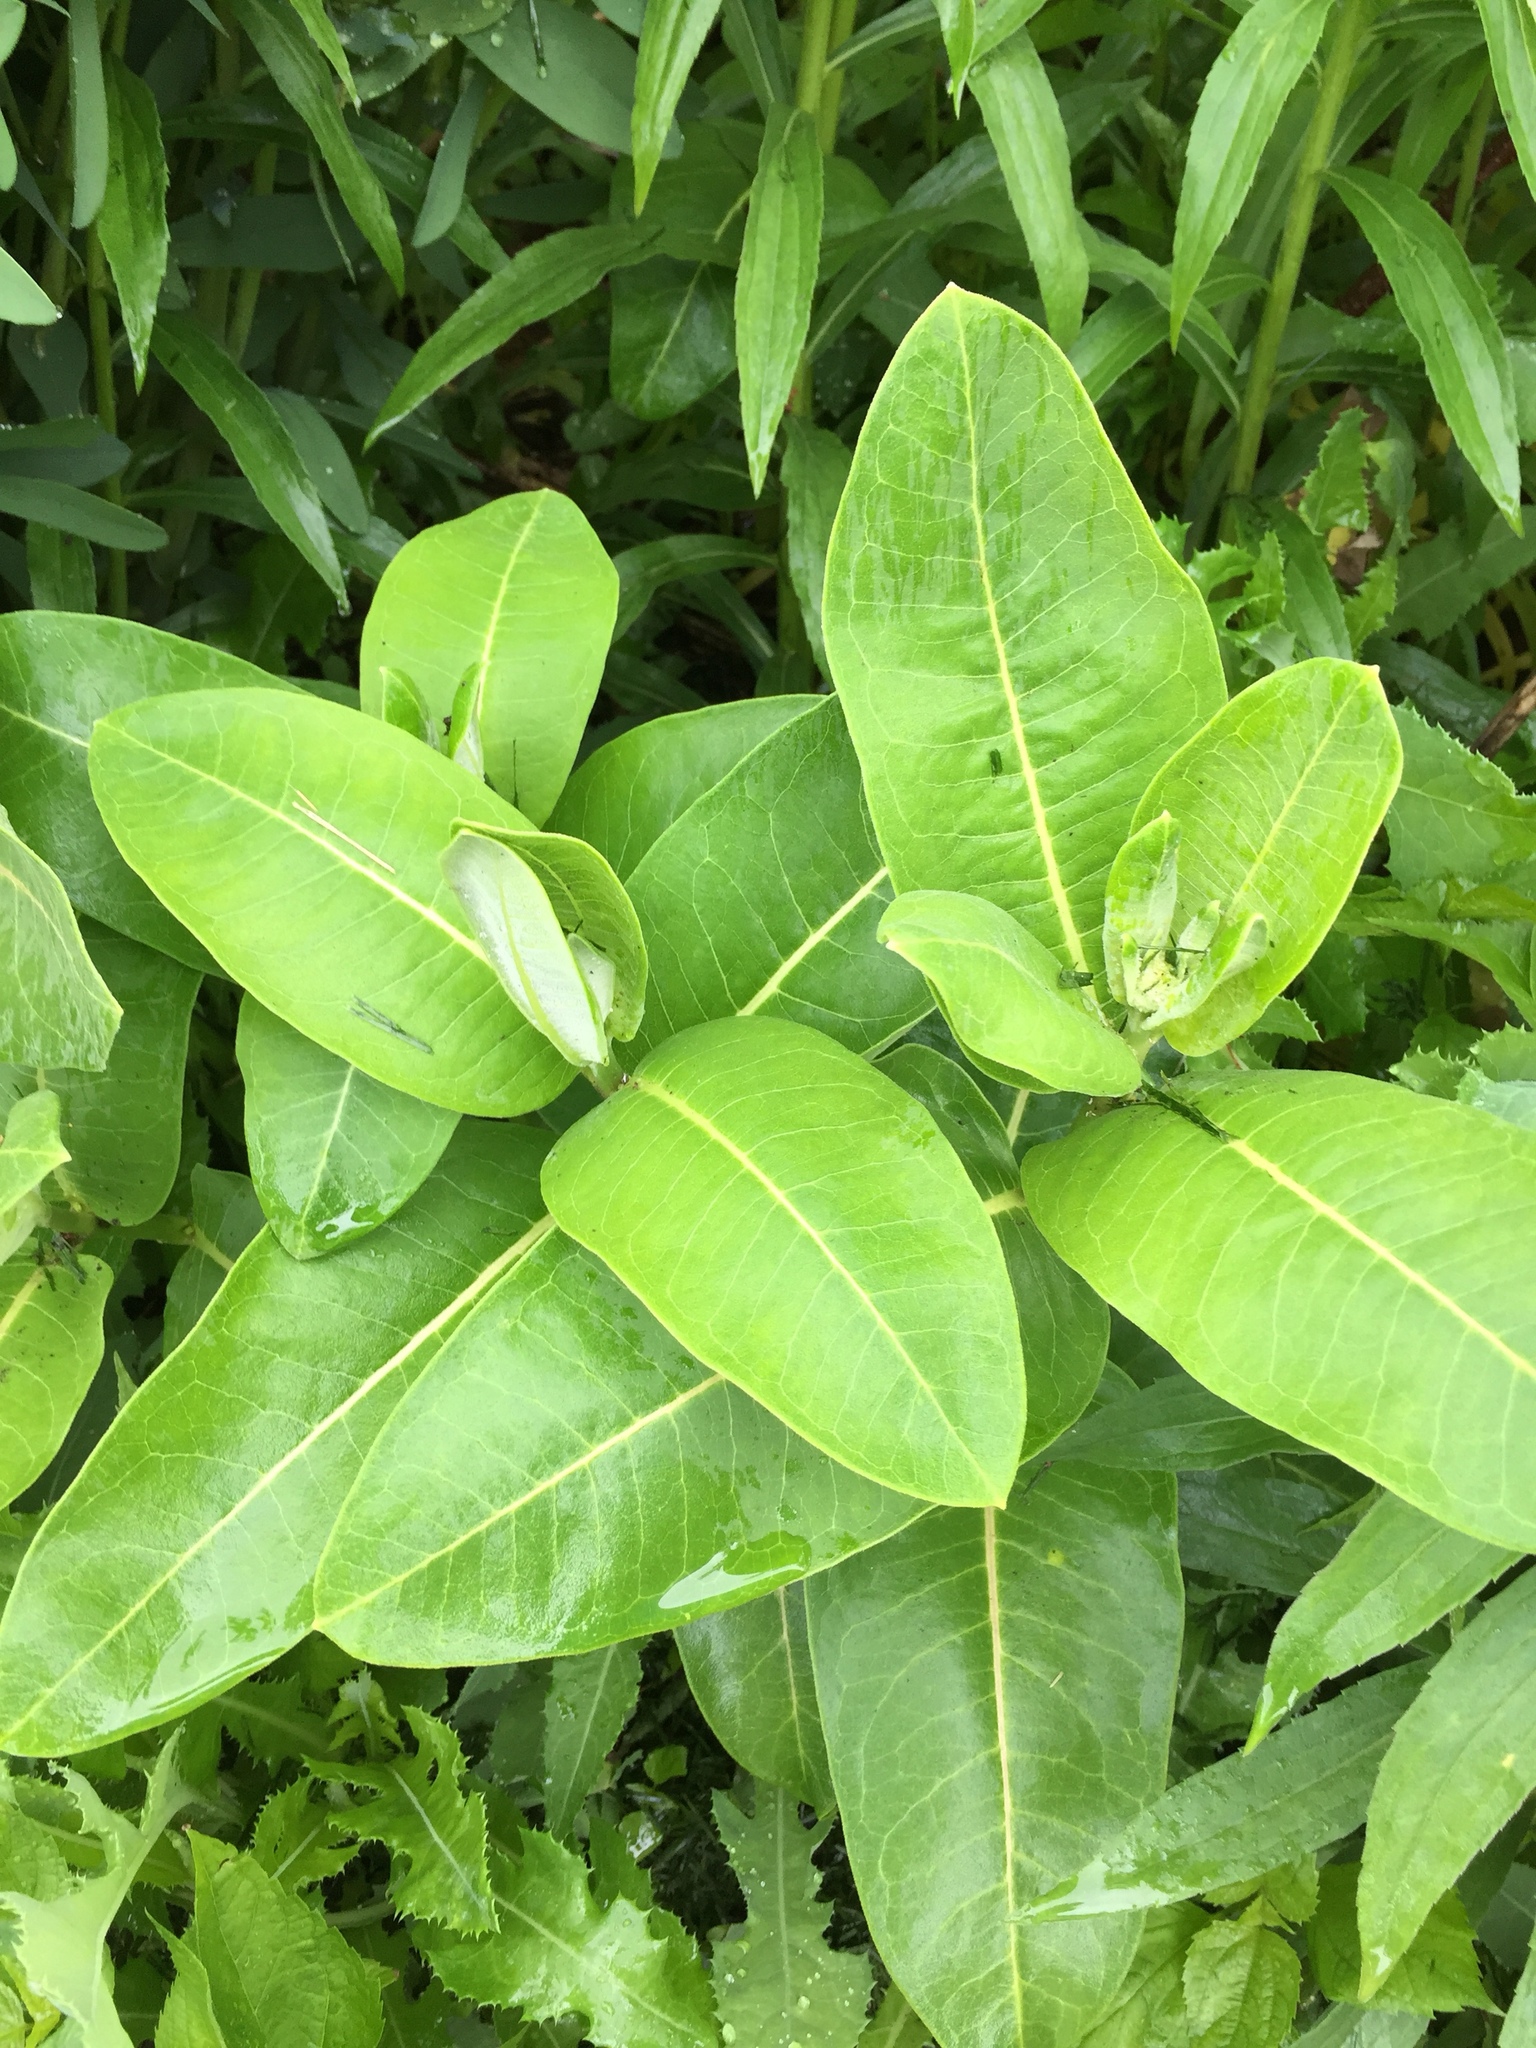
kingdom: Plantae
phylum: Tracheophyta
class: Magnoliopsida
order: Gentianales
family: Apocynaceae
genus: Asclepias
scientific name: Asclepias syriaca
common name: Common milkweed
